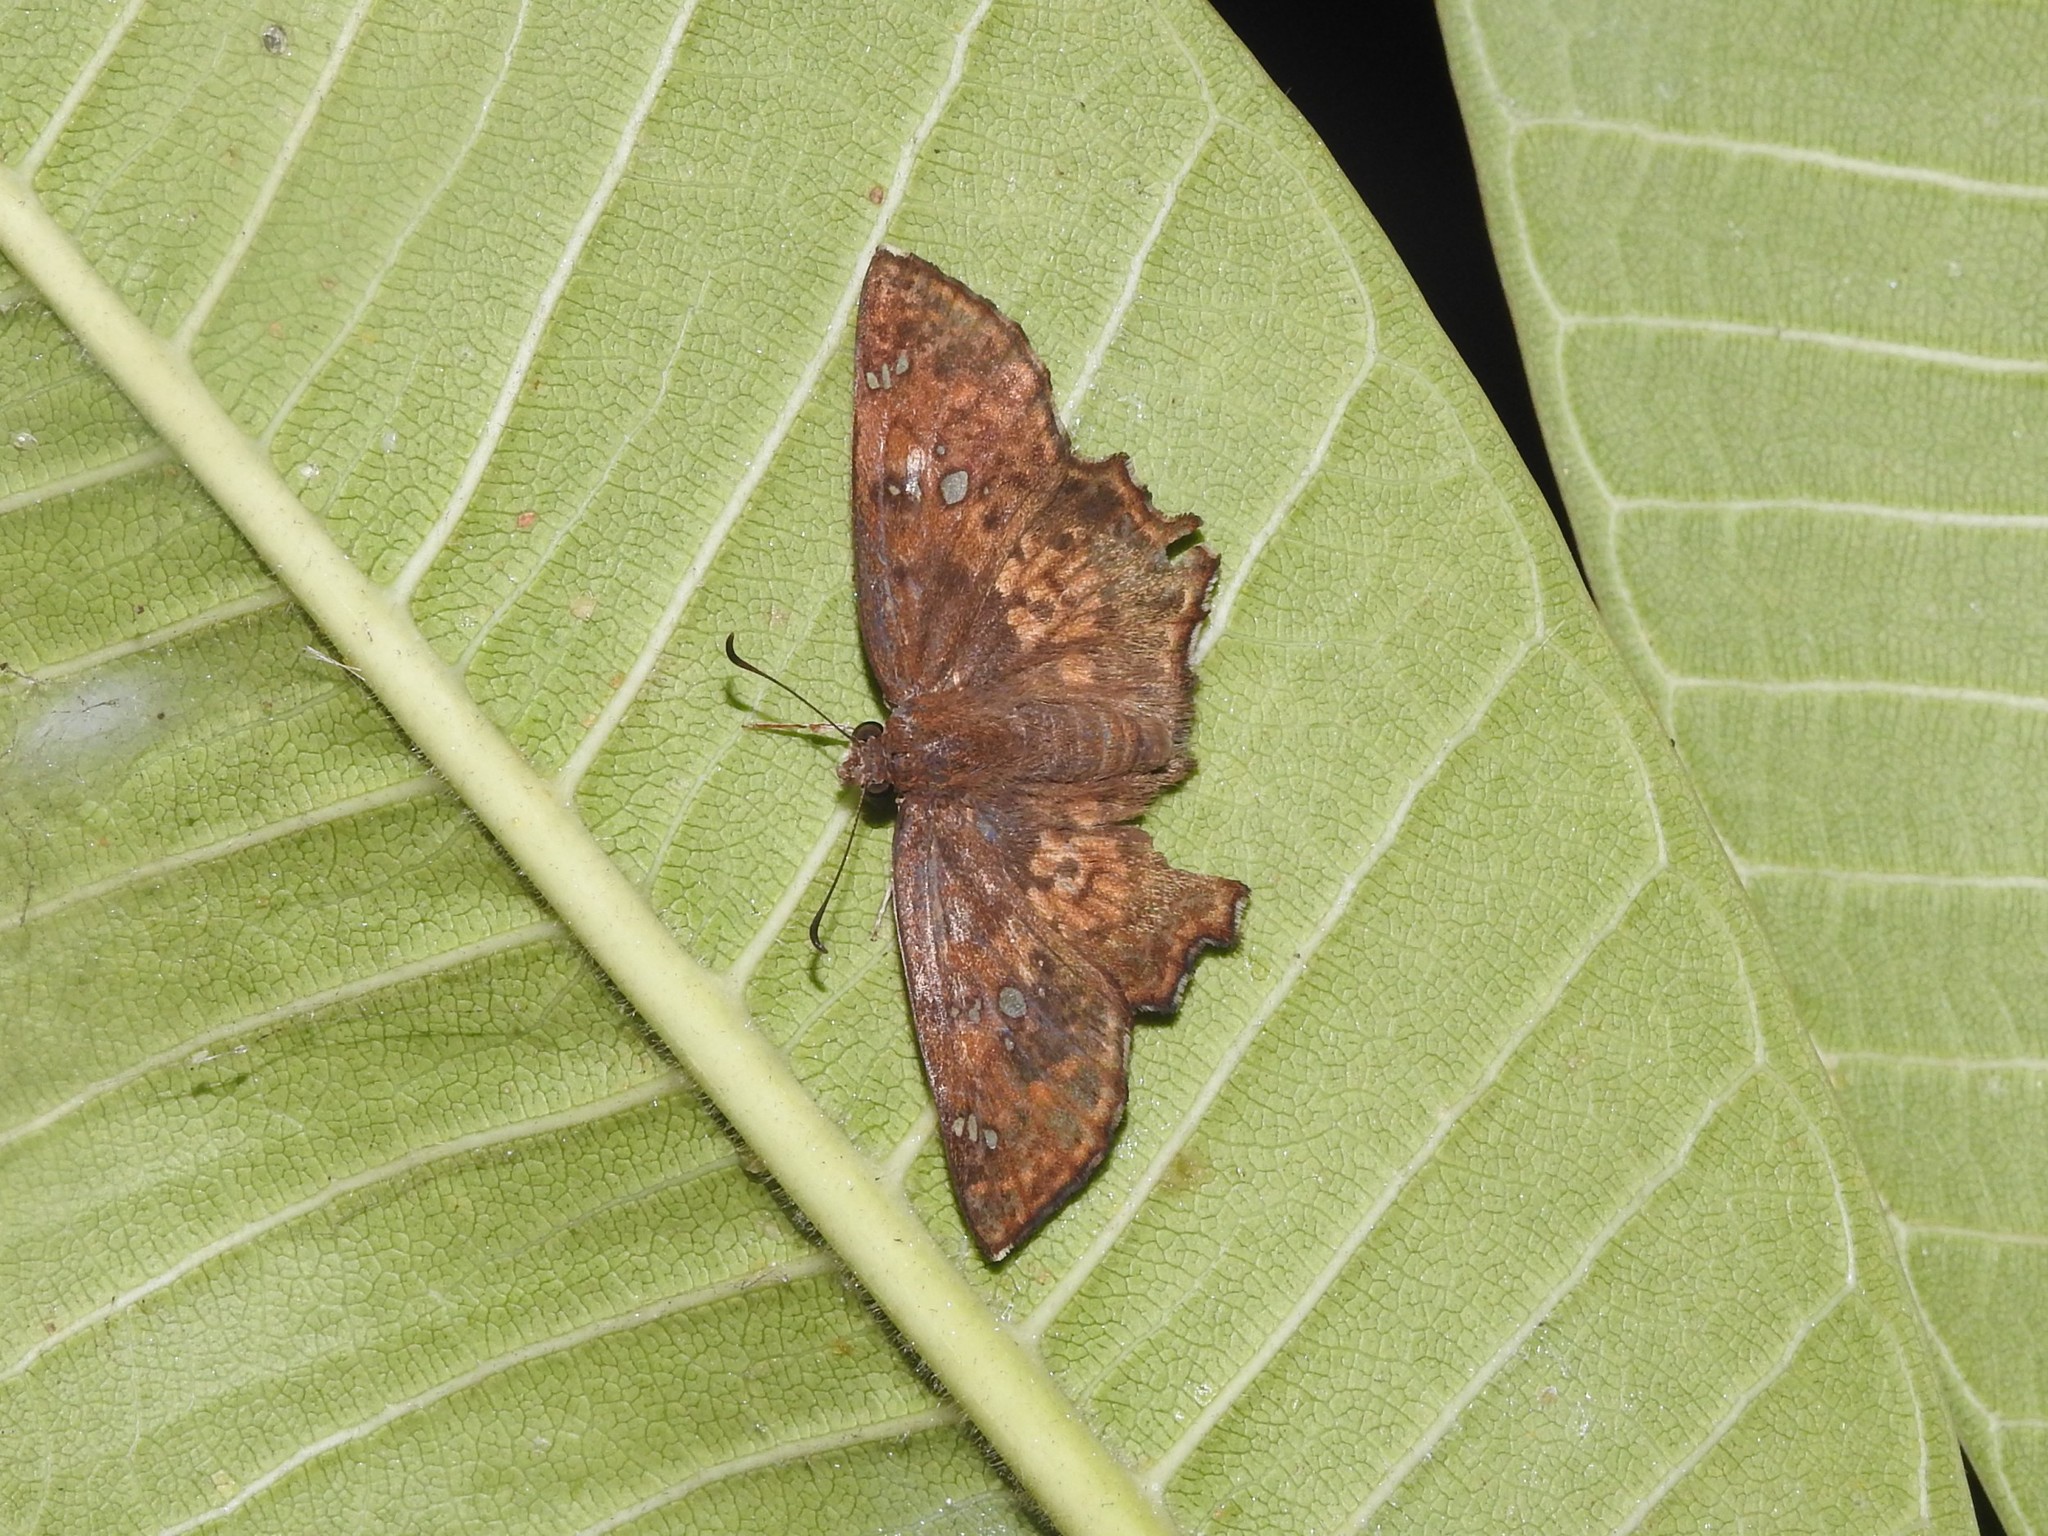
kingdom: Animalia
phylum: Arthropoda
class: Insecta
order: Lepidoptera
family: Hesperiidae
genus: Caprona
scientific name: Caprona ransonnettii
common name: Golden angle
